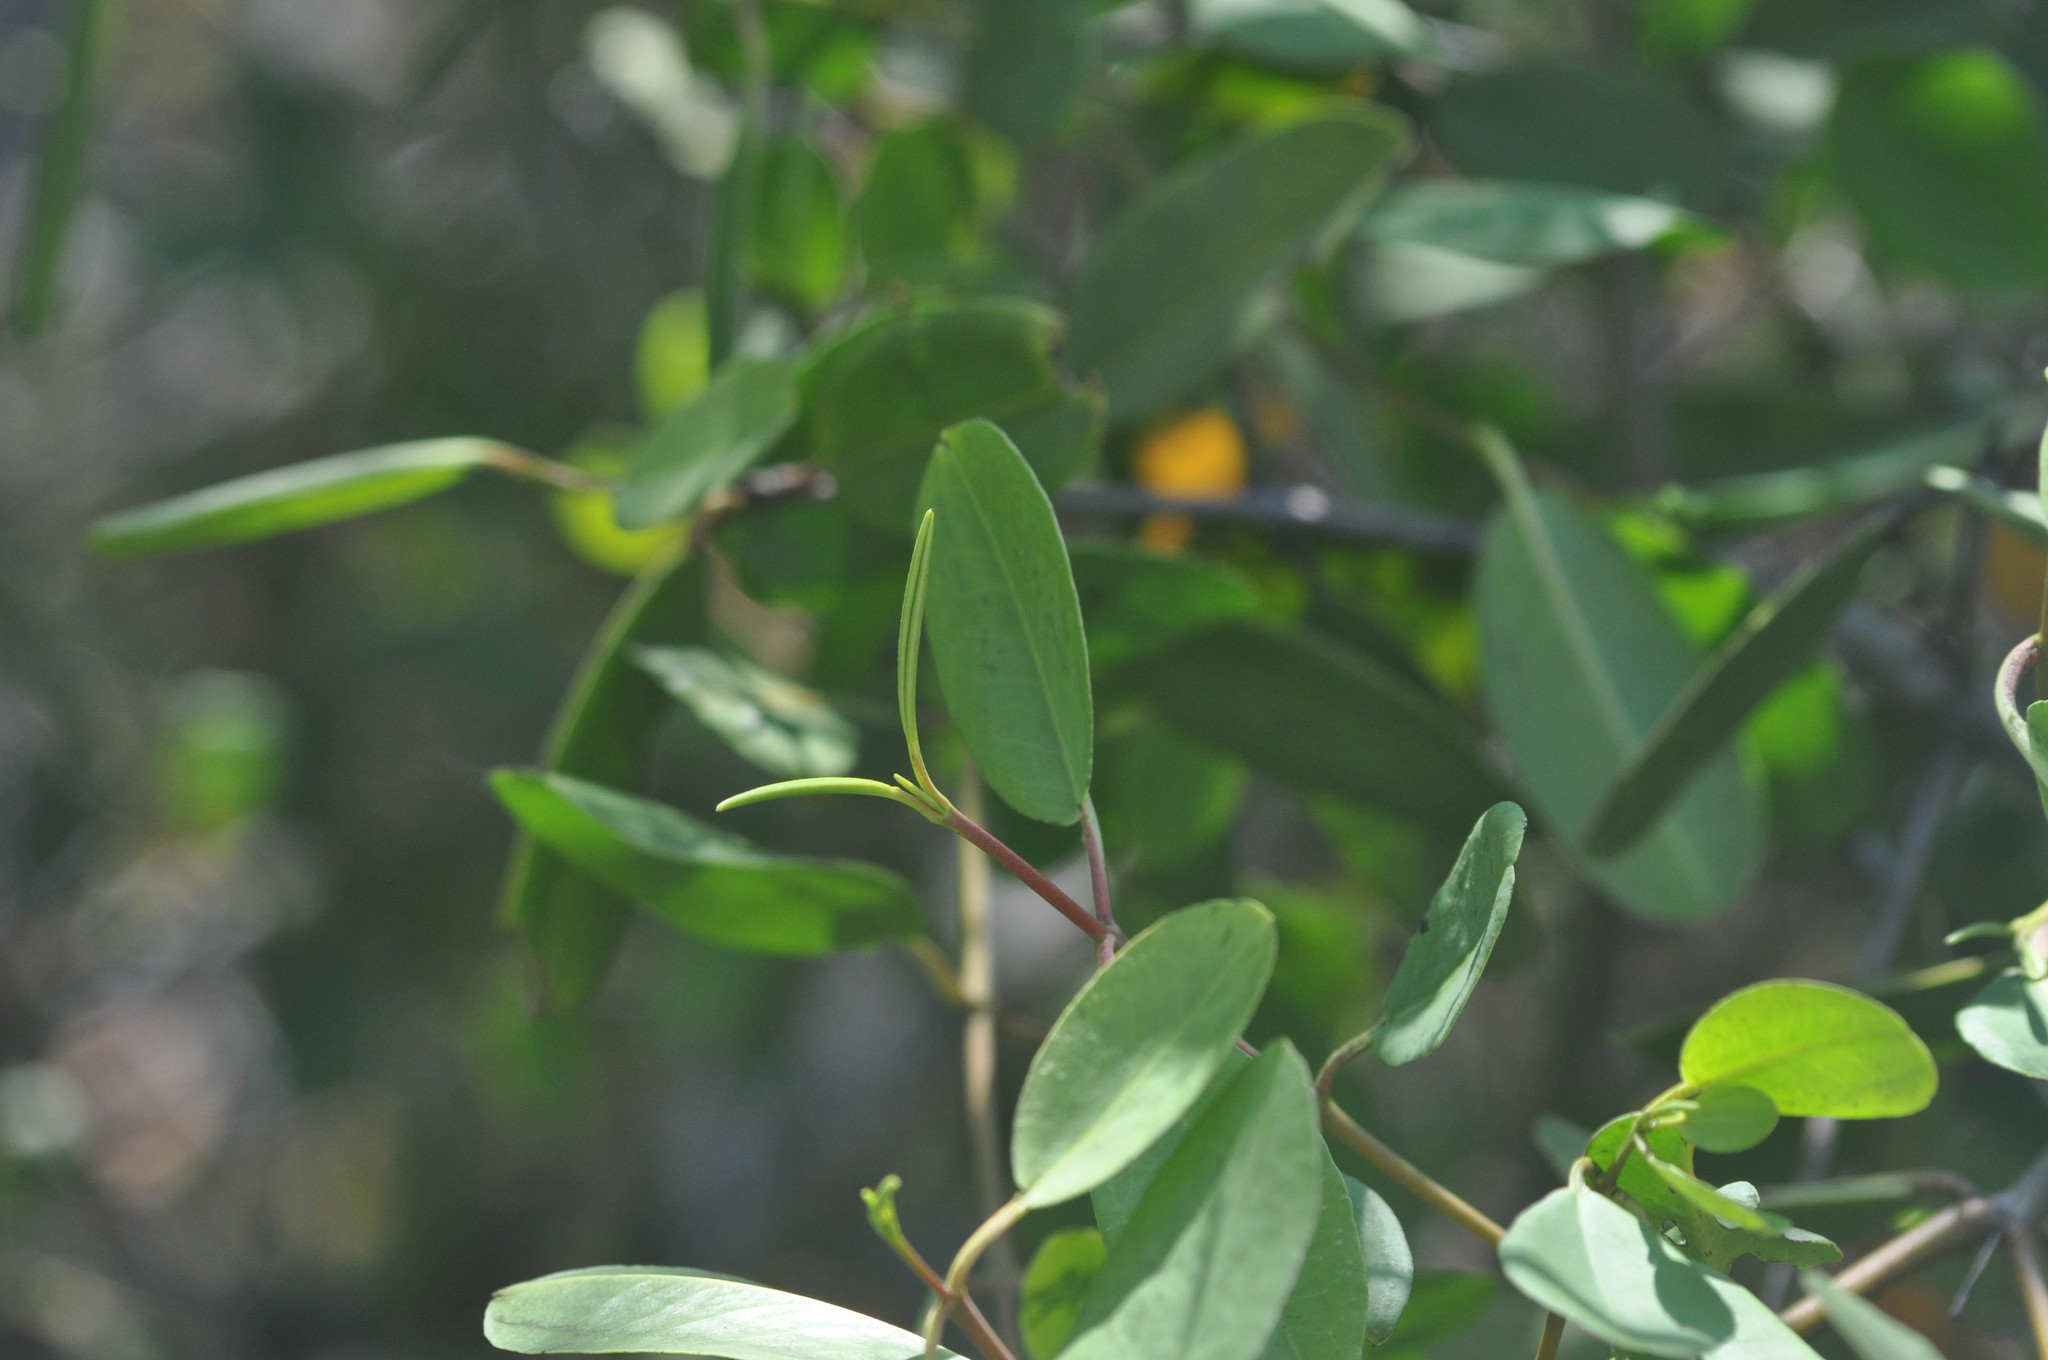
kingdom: Plantae
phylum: Tracheophyta
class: Magnoliopsida
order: Myrtales
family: Combretaceae
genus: Laguncularia
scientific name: Laguncularia racemosa
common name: White mangrove
